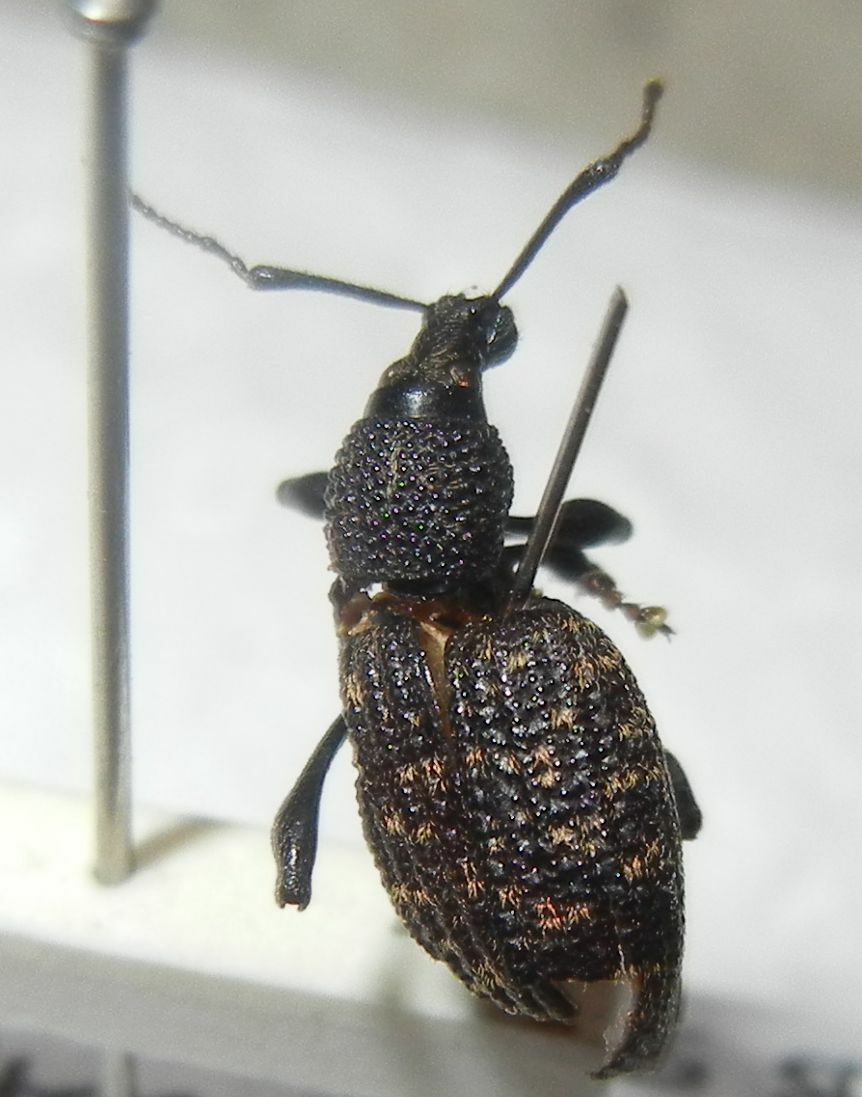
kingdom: Animalia
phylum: Arthropoda
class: Insecta
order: Coleoptera
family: Curculionidae
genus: Otiorhynchus
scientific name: Otiorhynchus sulcatus
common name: Black vine weevil
